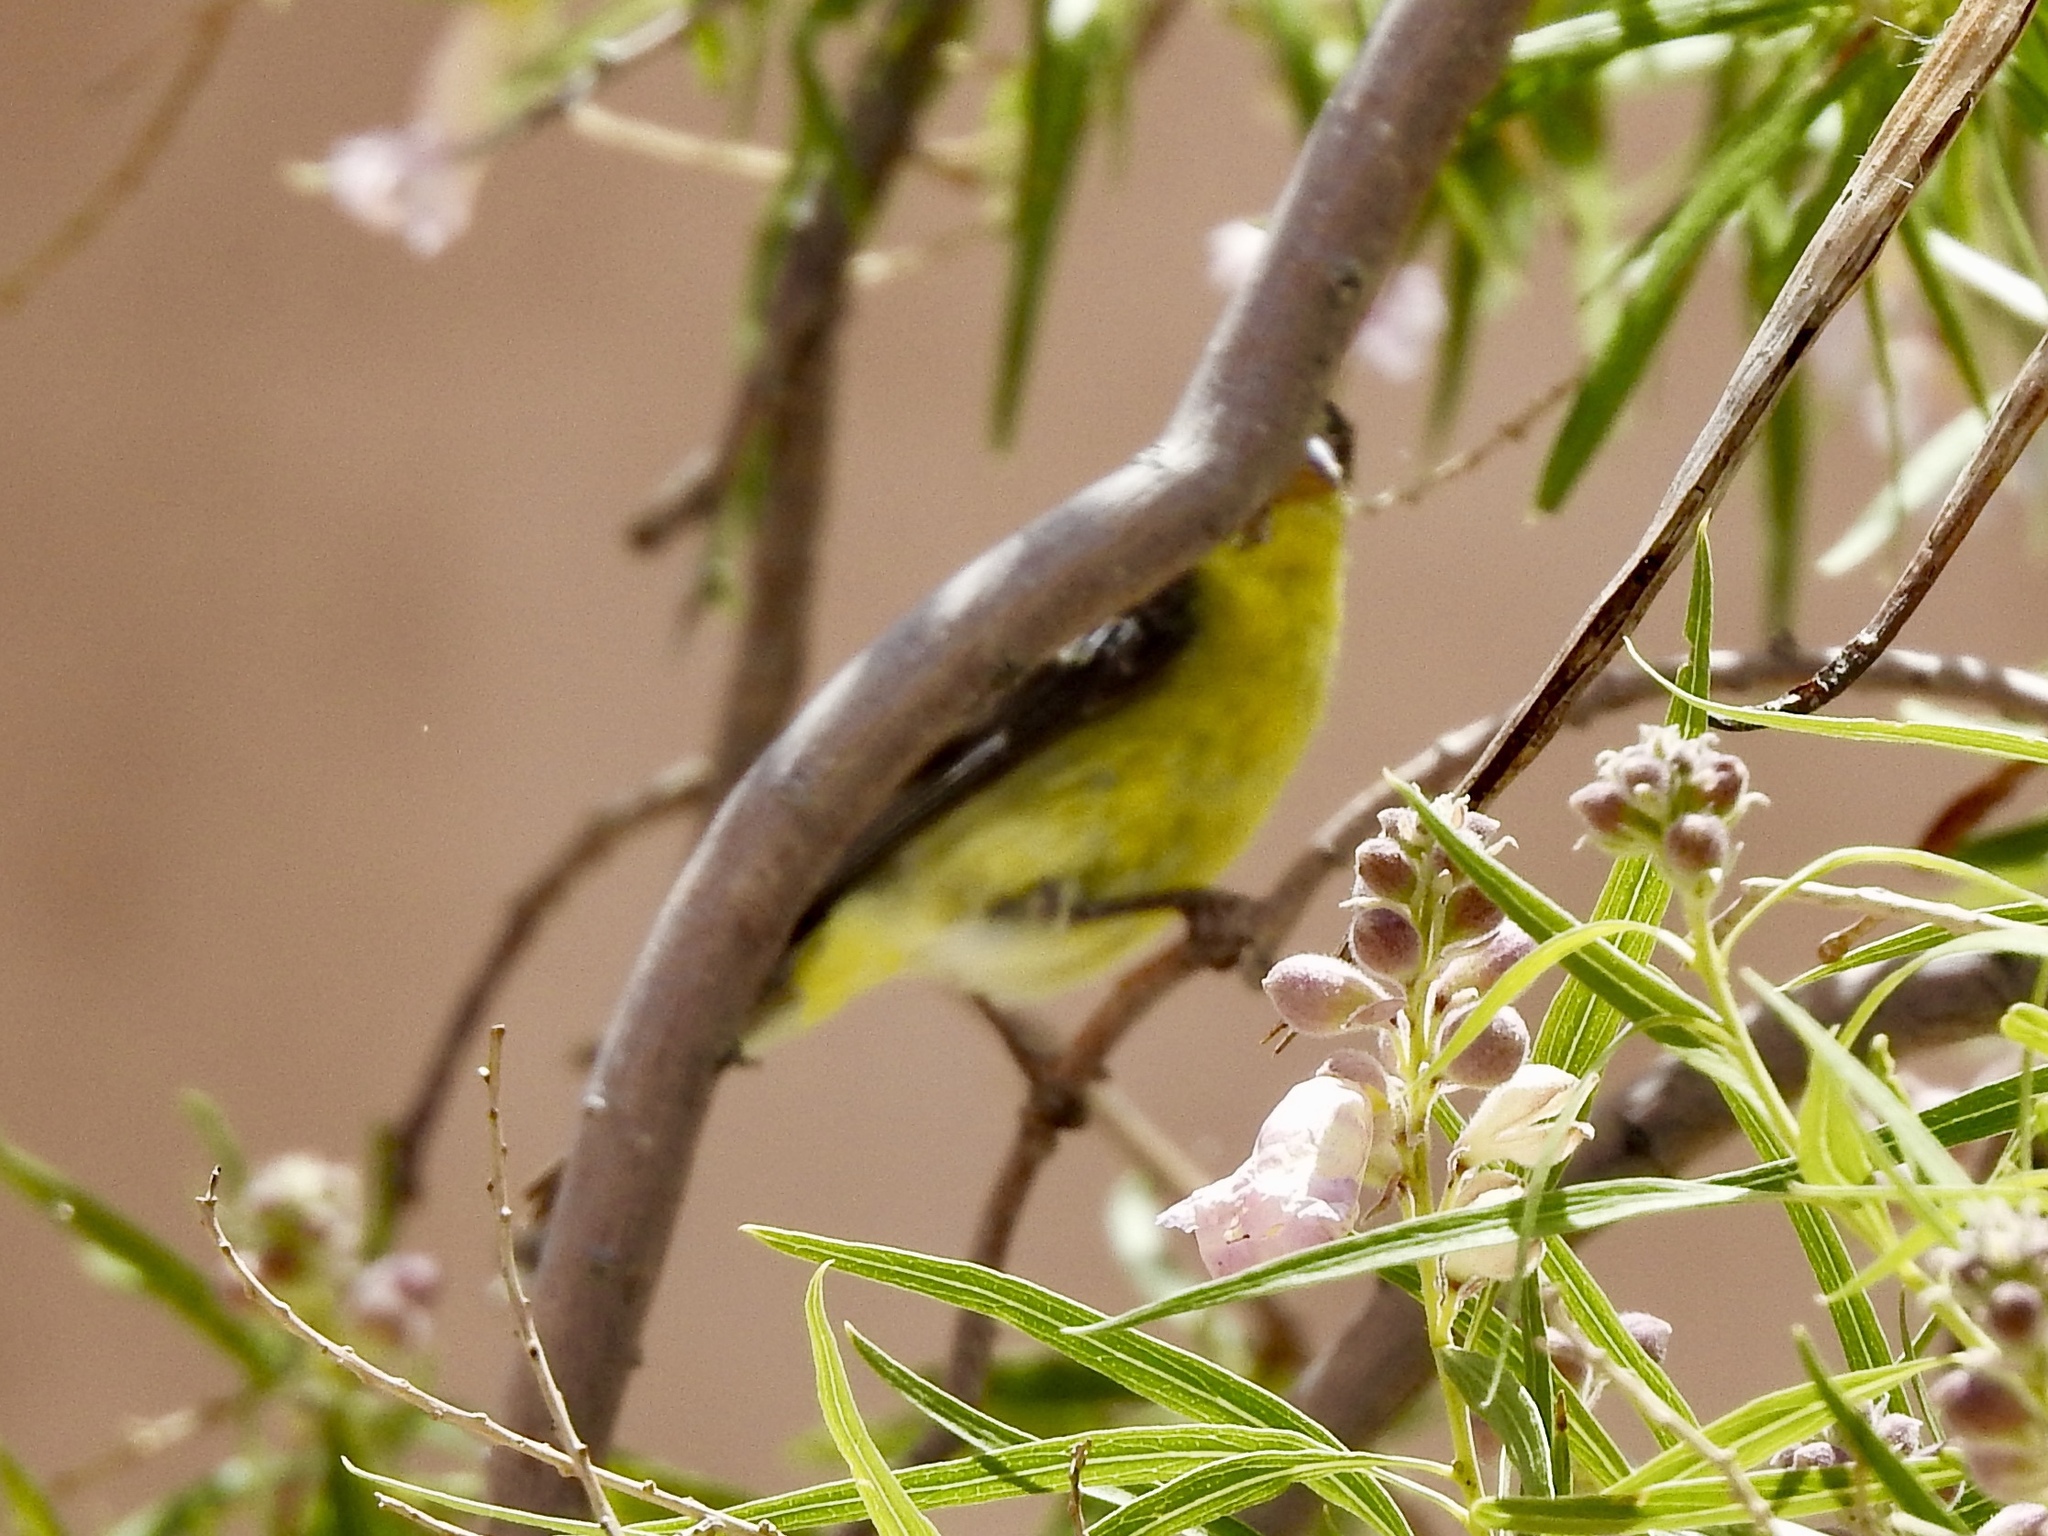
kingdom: Animalia
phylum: Chordata
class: Aves
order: Passeriformes
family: Fringillidae
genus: Spinus
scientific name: Spinus psaltria
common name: Lesser goldfinch
